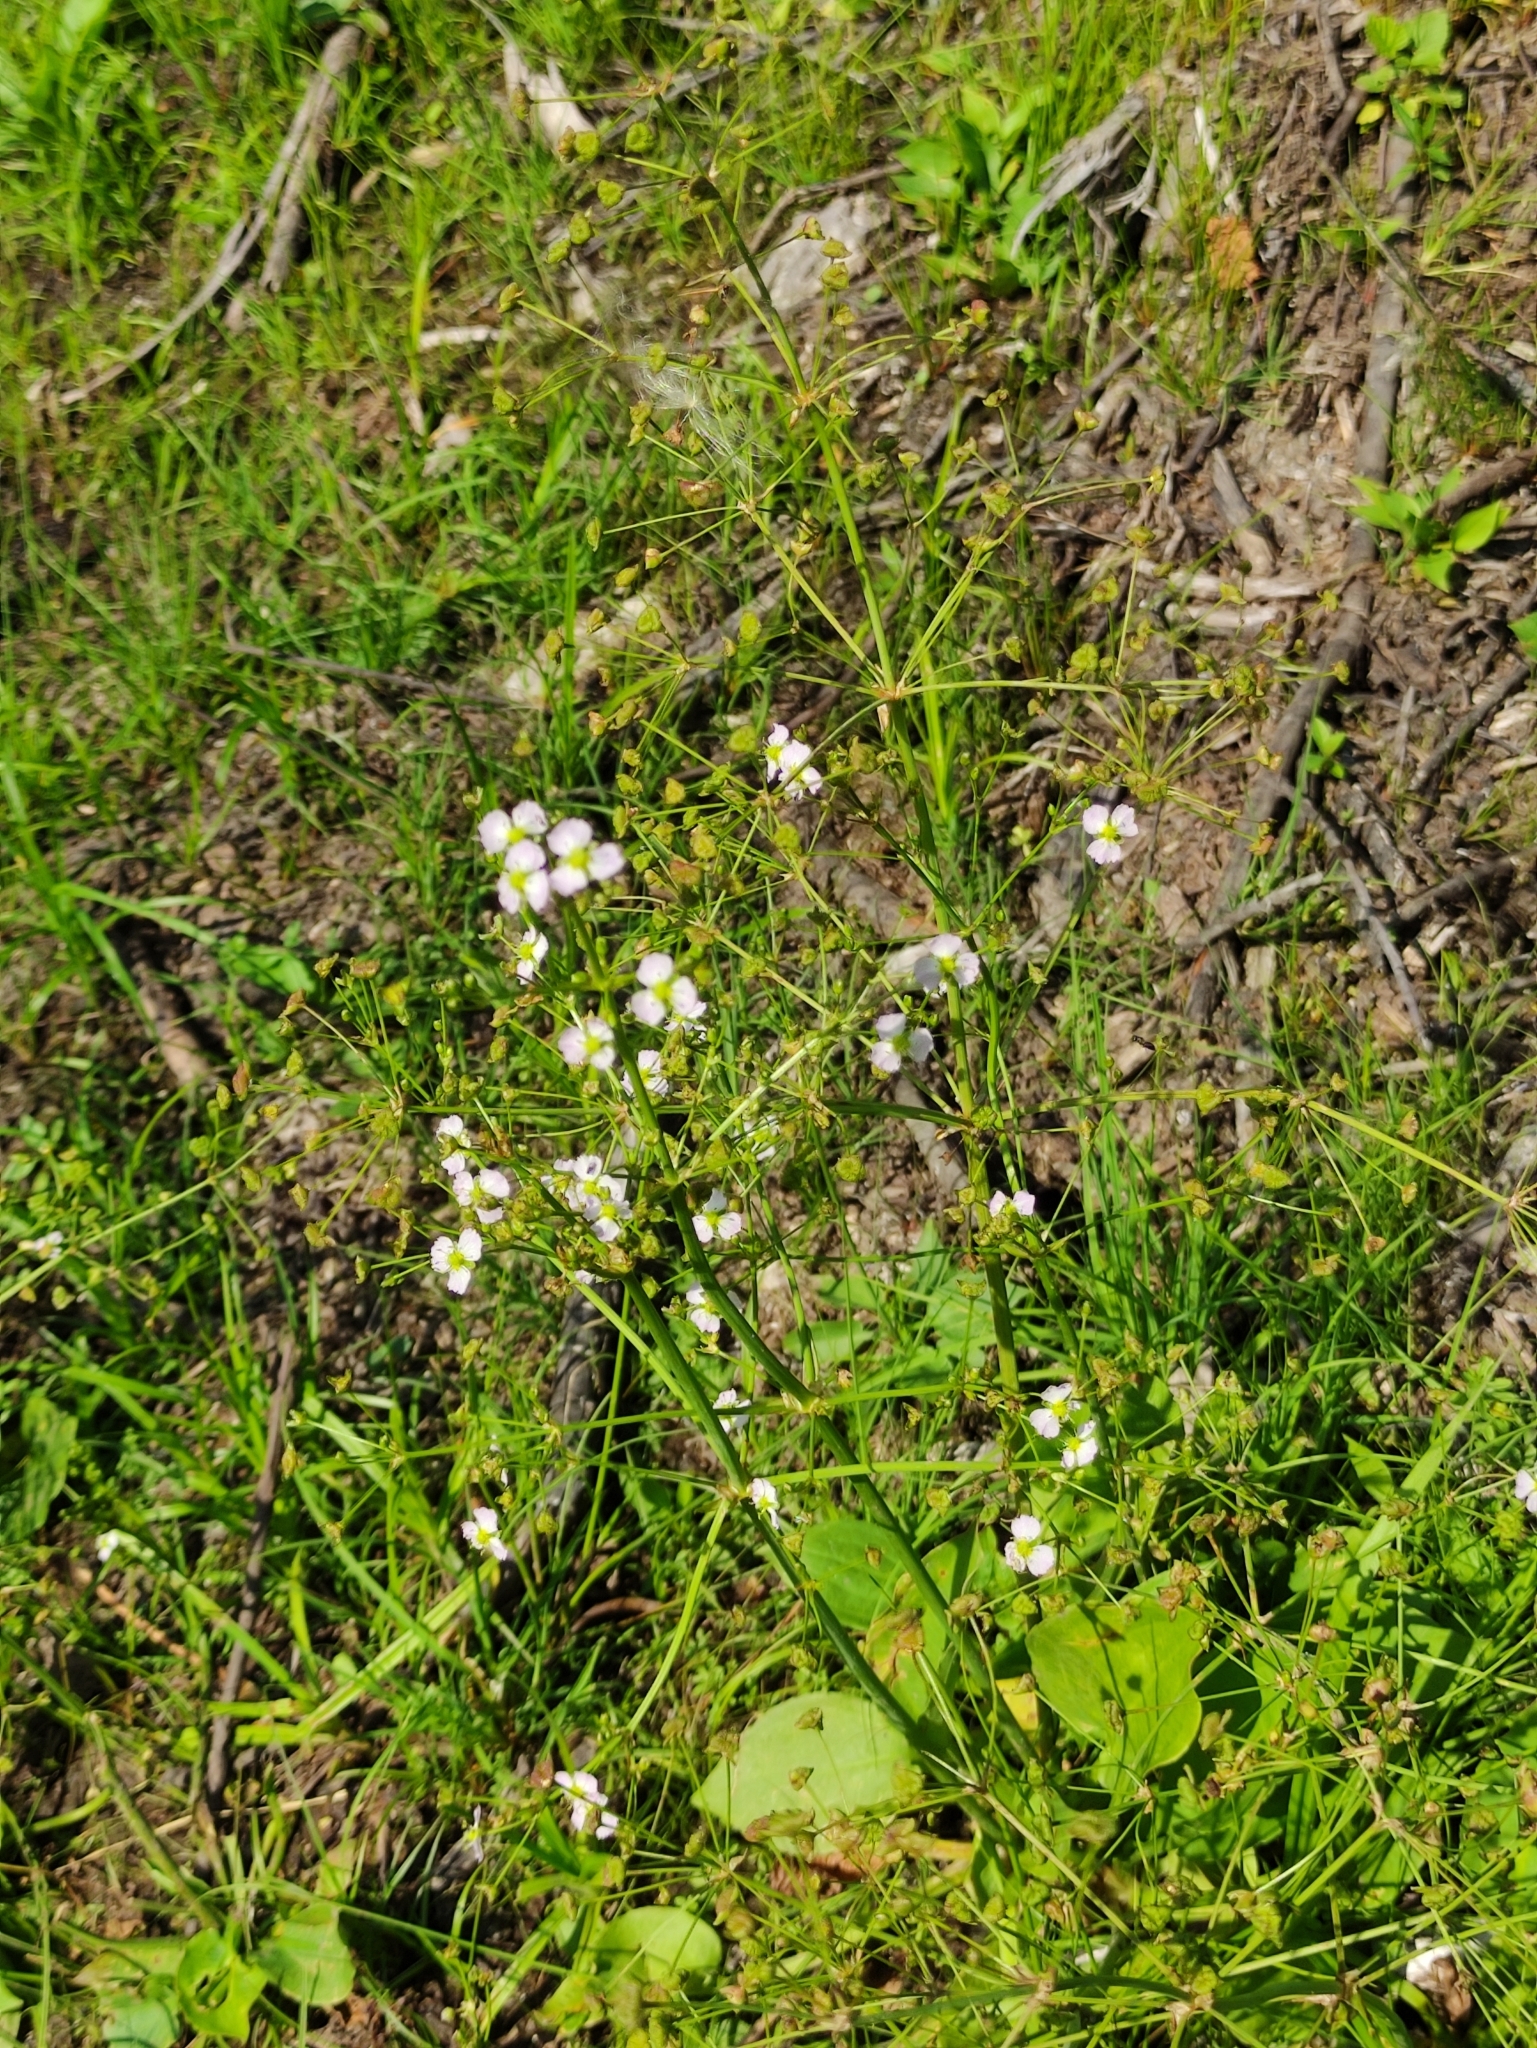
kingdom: Plantae
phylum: Tracheophyta
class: Liliopsida
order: Alismatales
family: Alismataceae
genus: Alisma
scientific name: Alisma plantago-aquatica
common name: Water-plantain
